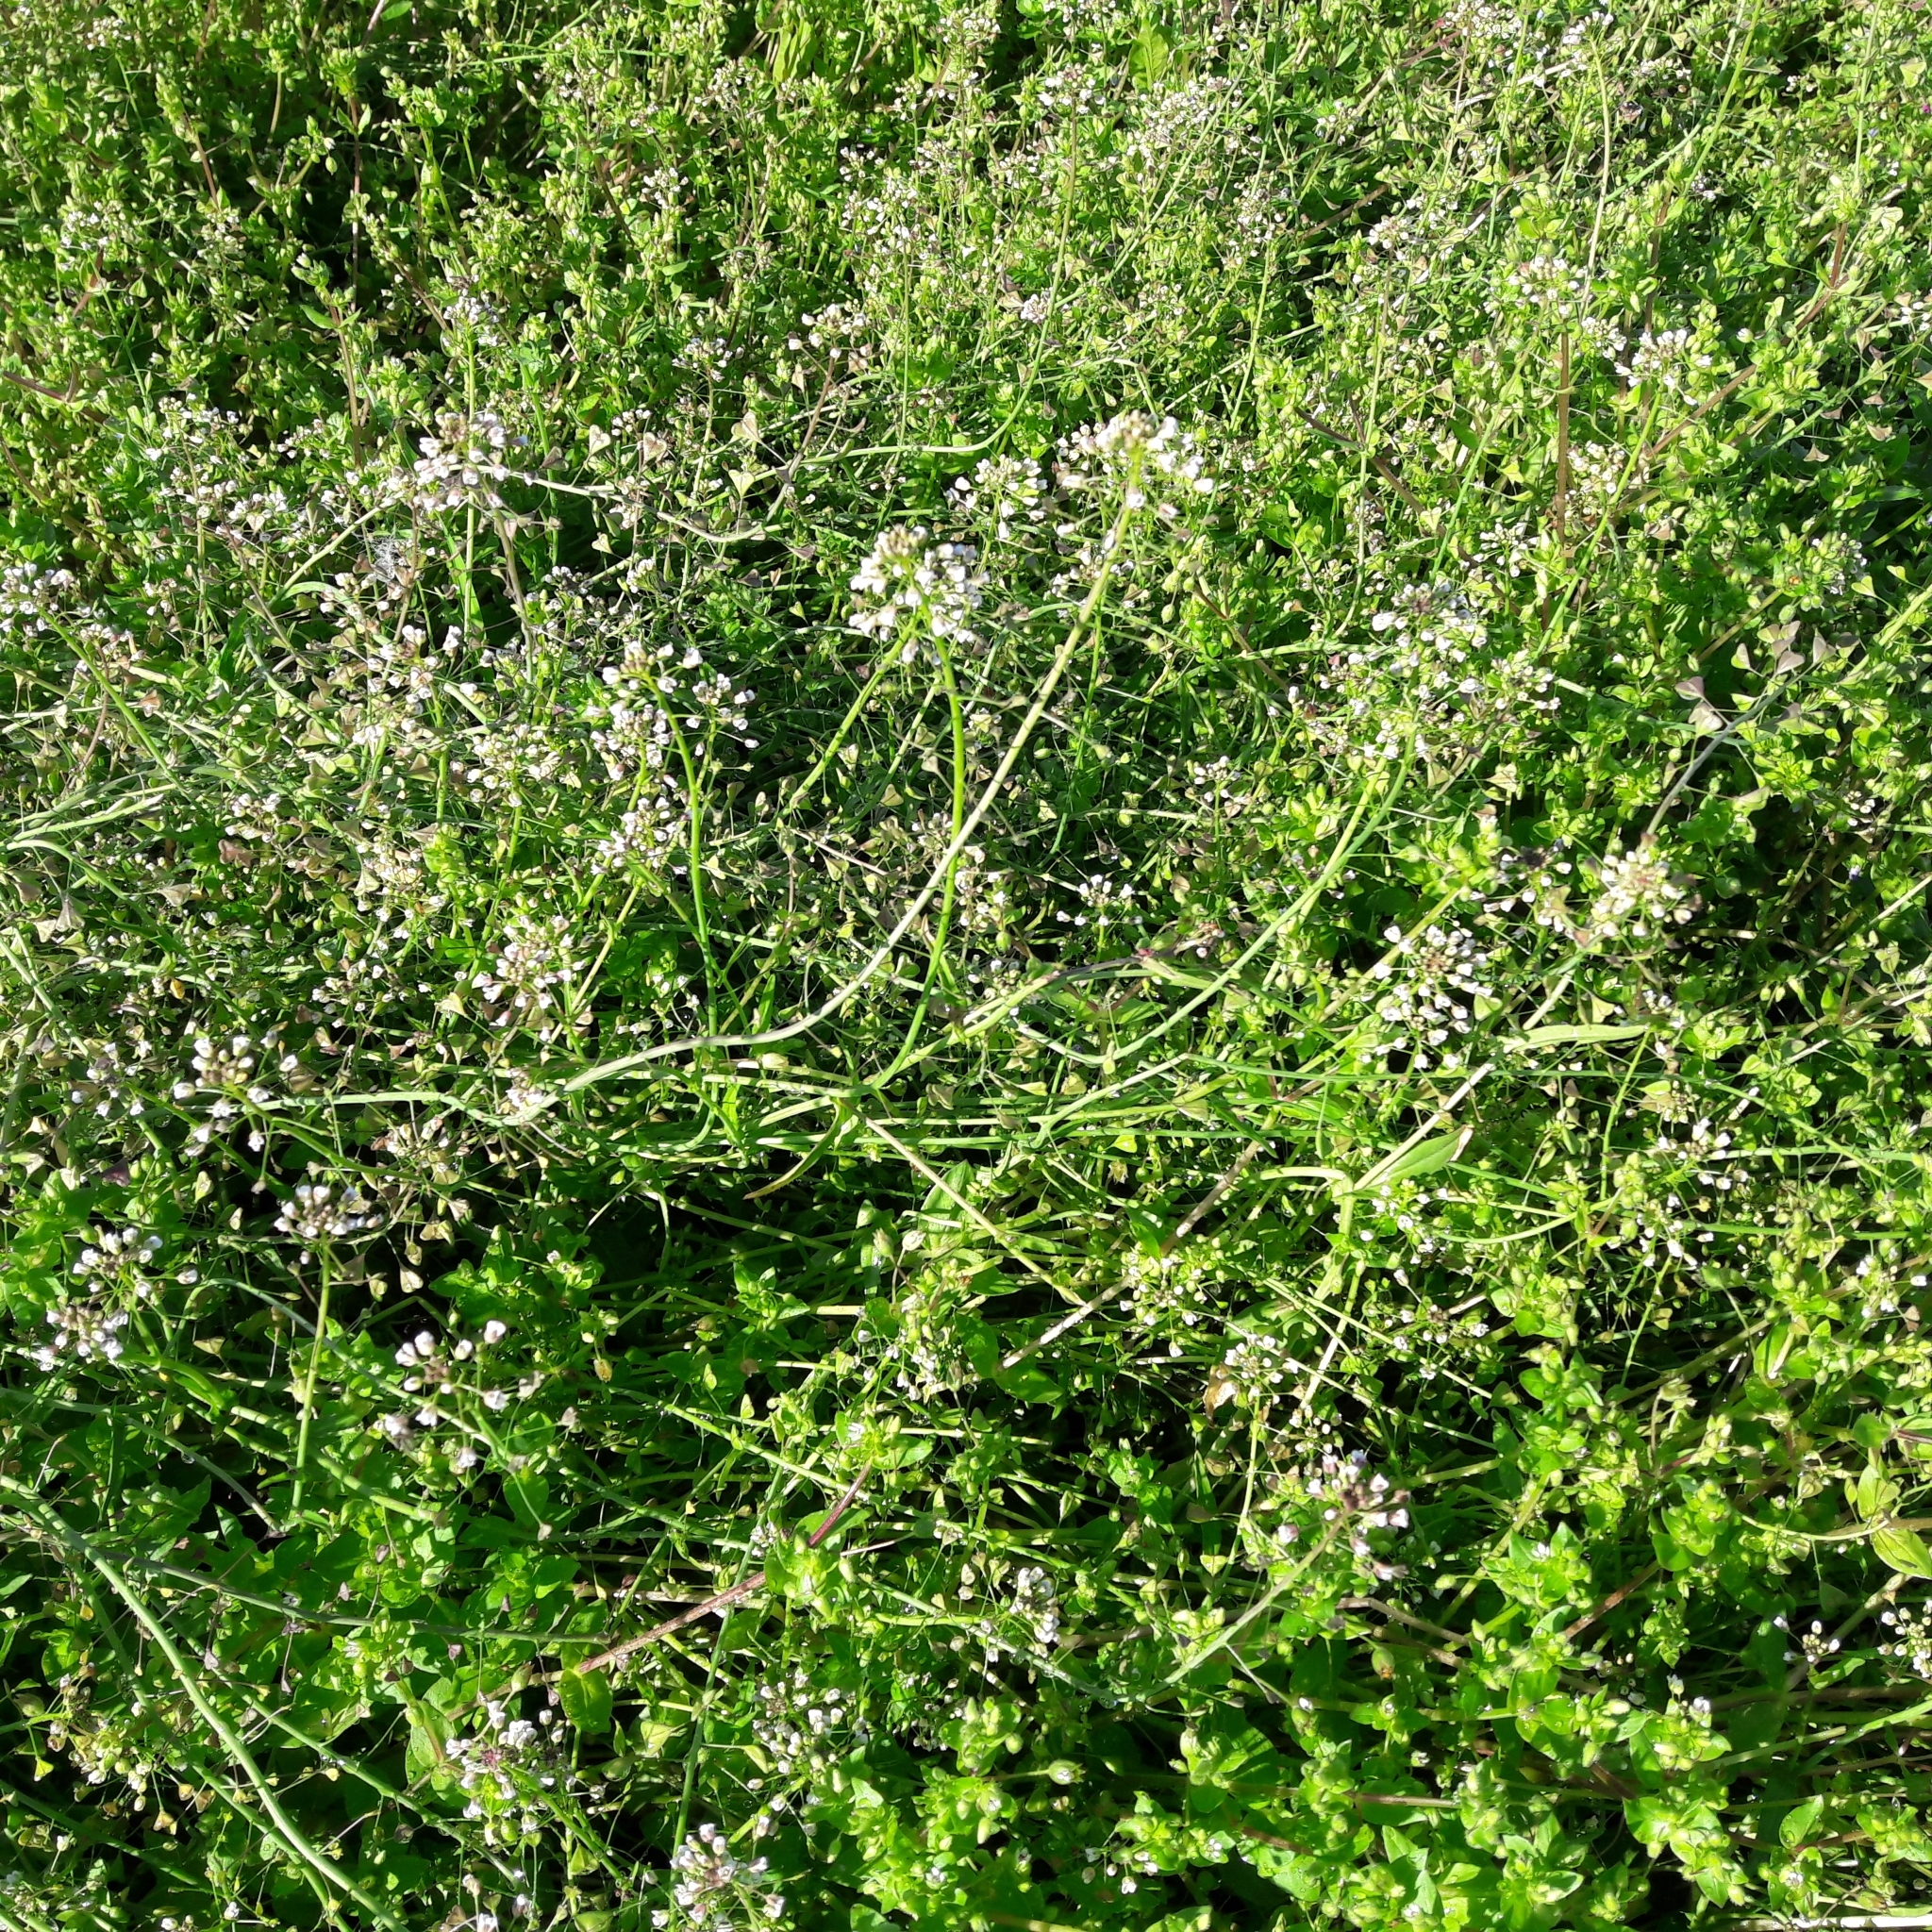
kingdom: Plantae
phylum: Tracheophyta
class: Magnoliopsida
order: Brassicales
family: Brassicaceae
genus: Capsella
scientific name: Capsella bursa-pastoris
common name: Shepherd's purse
